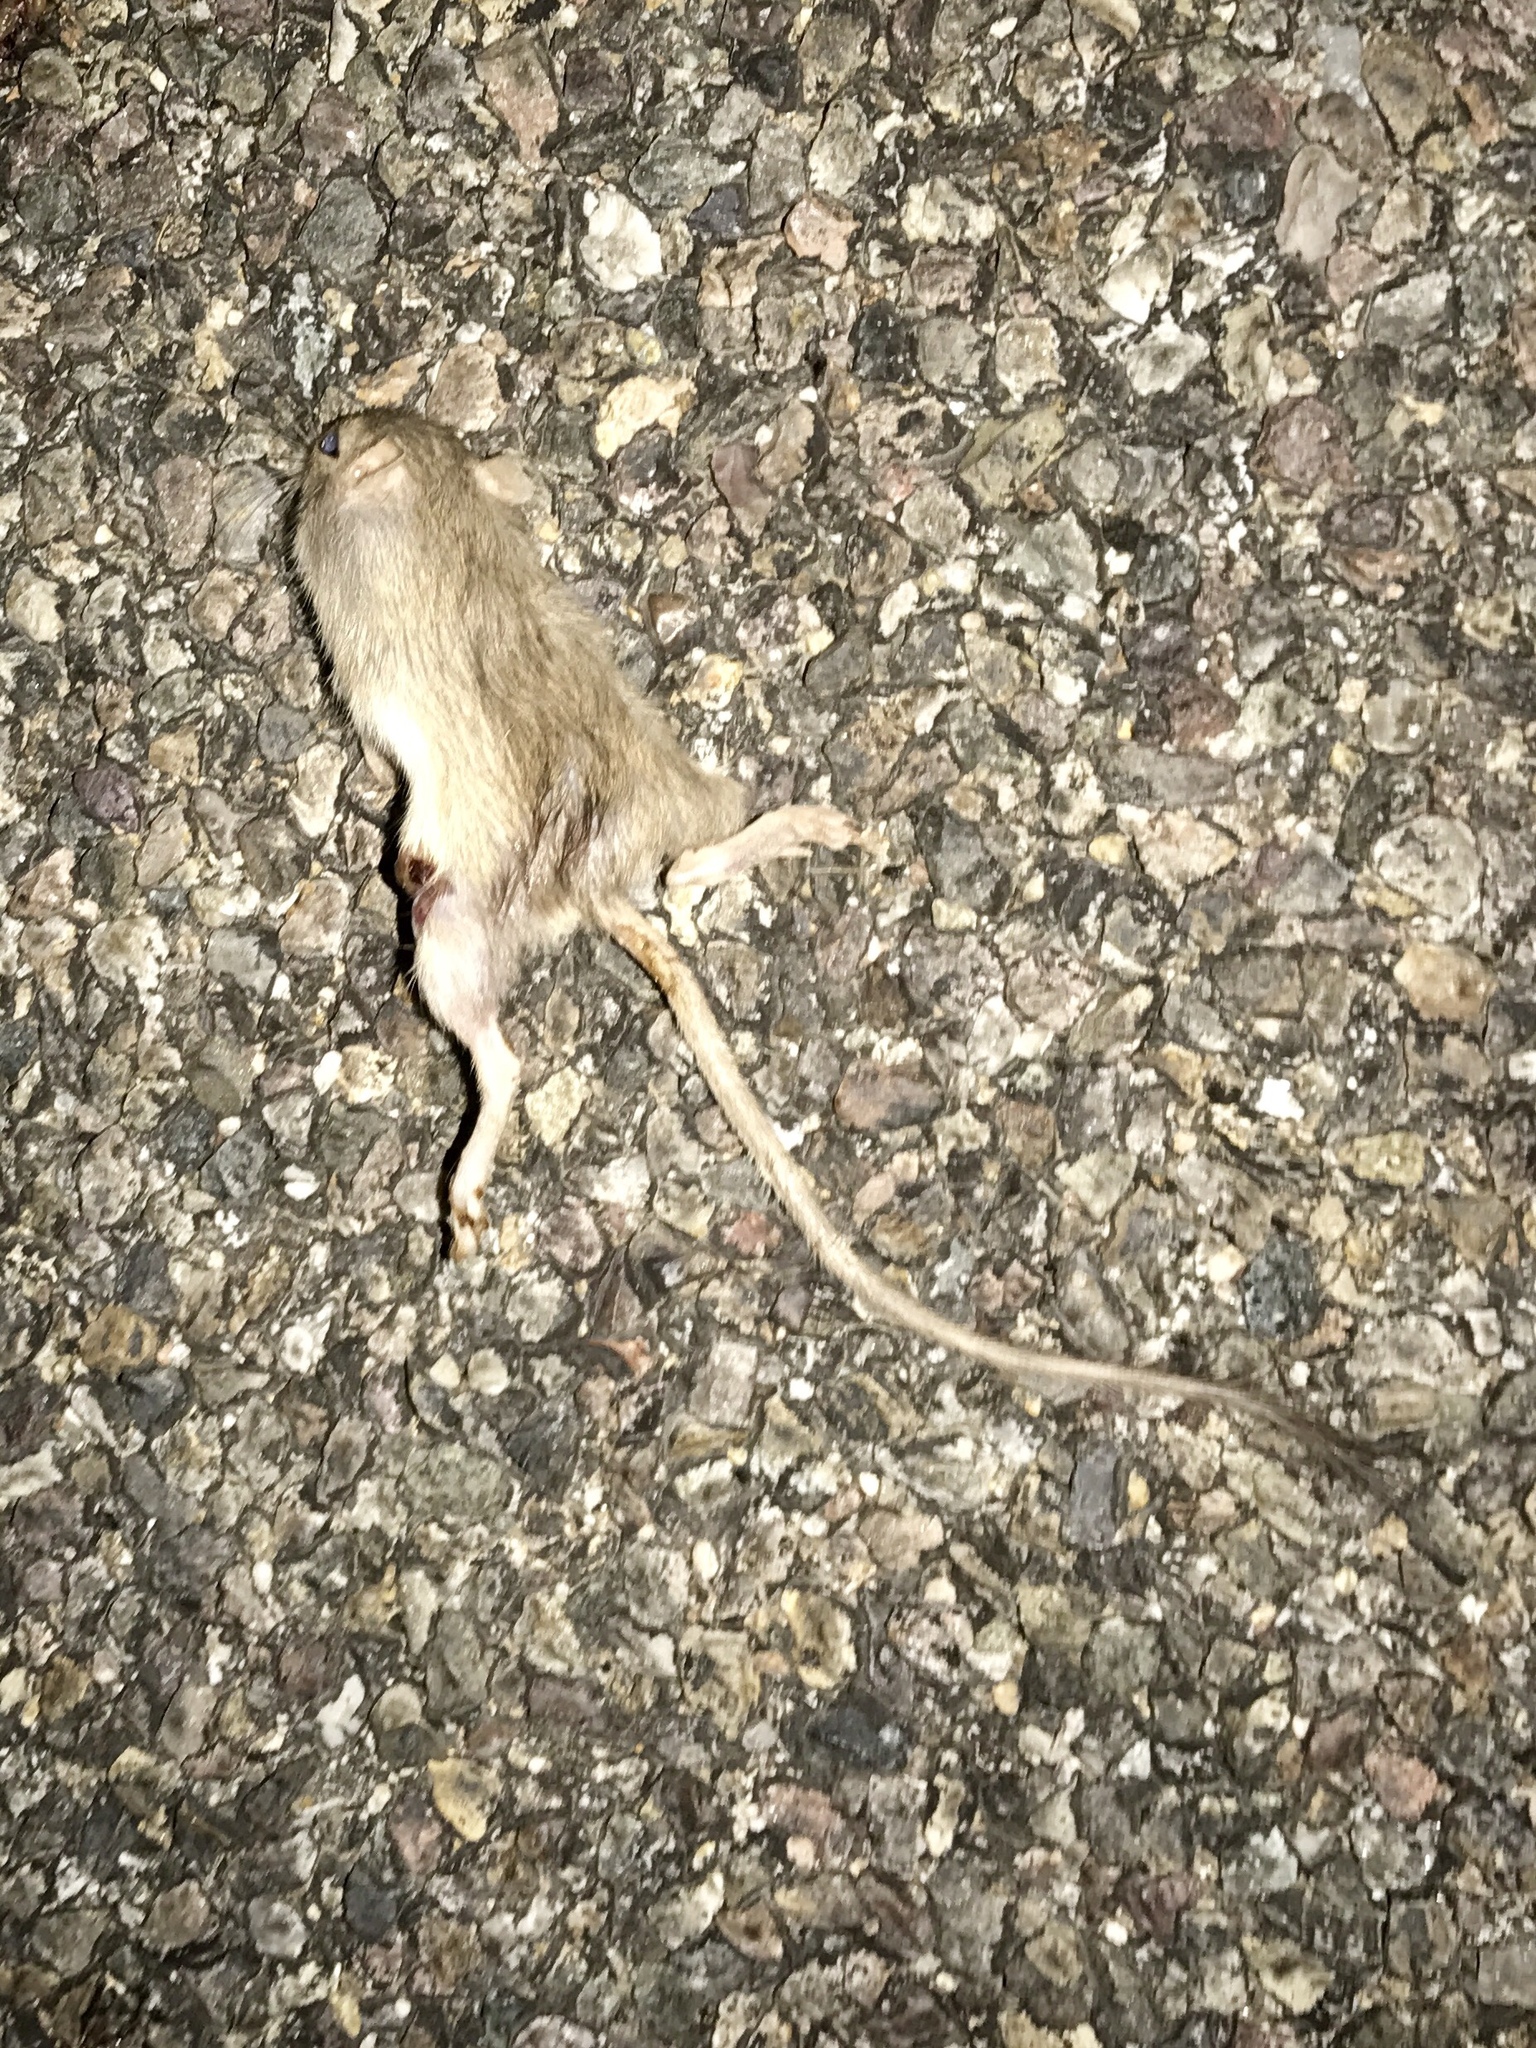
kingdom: Animalia
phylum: Chordata
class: Mammalia
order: Rodentia
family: Heteromyidae
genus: Chaetodipus
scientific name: Chaetodipus hispidus
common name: Hispid pocket mouse
